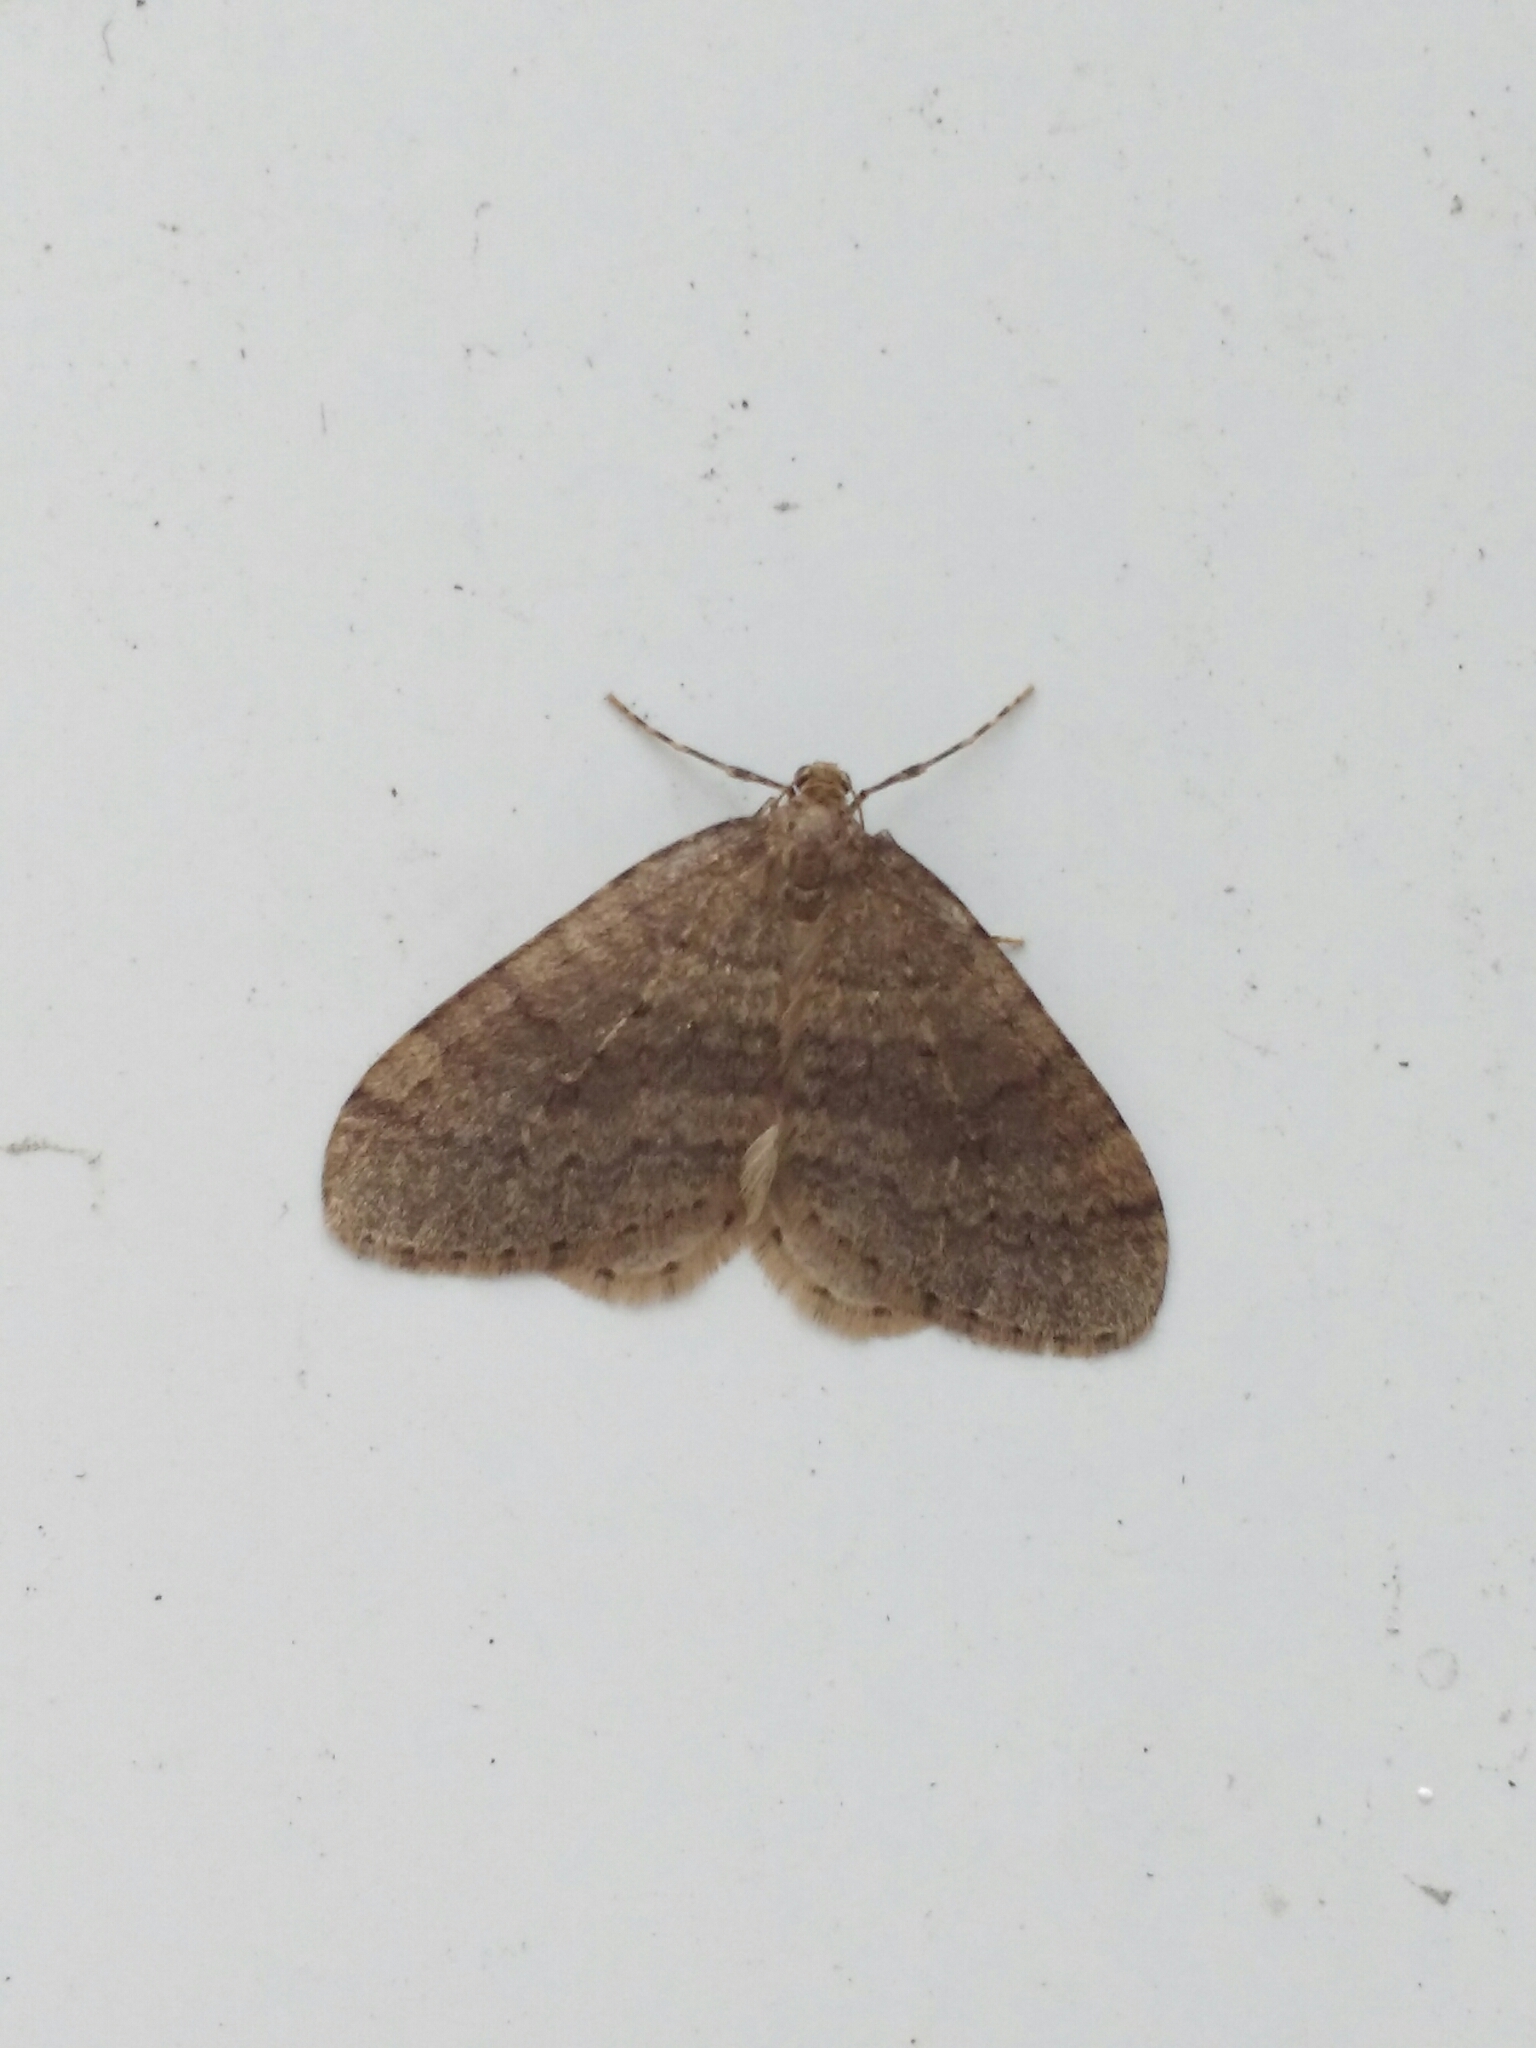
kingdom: Animalia
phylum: Arthropoda
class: Insecta
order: Lepidoptera
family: Geometridae
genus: Operophtera
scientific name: Operophtera brumata
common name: Winter moth
